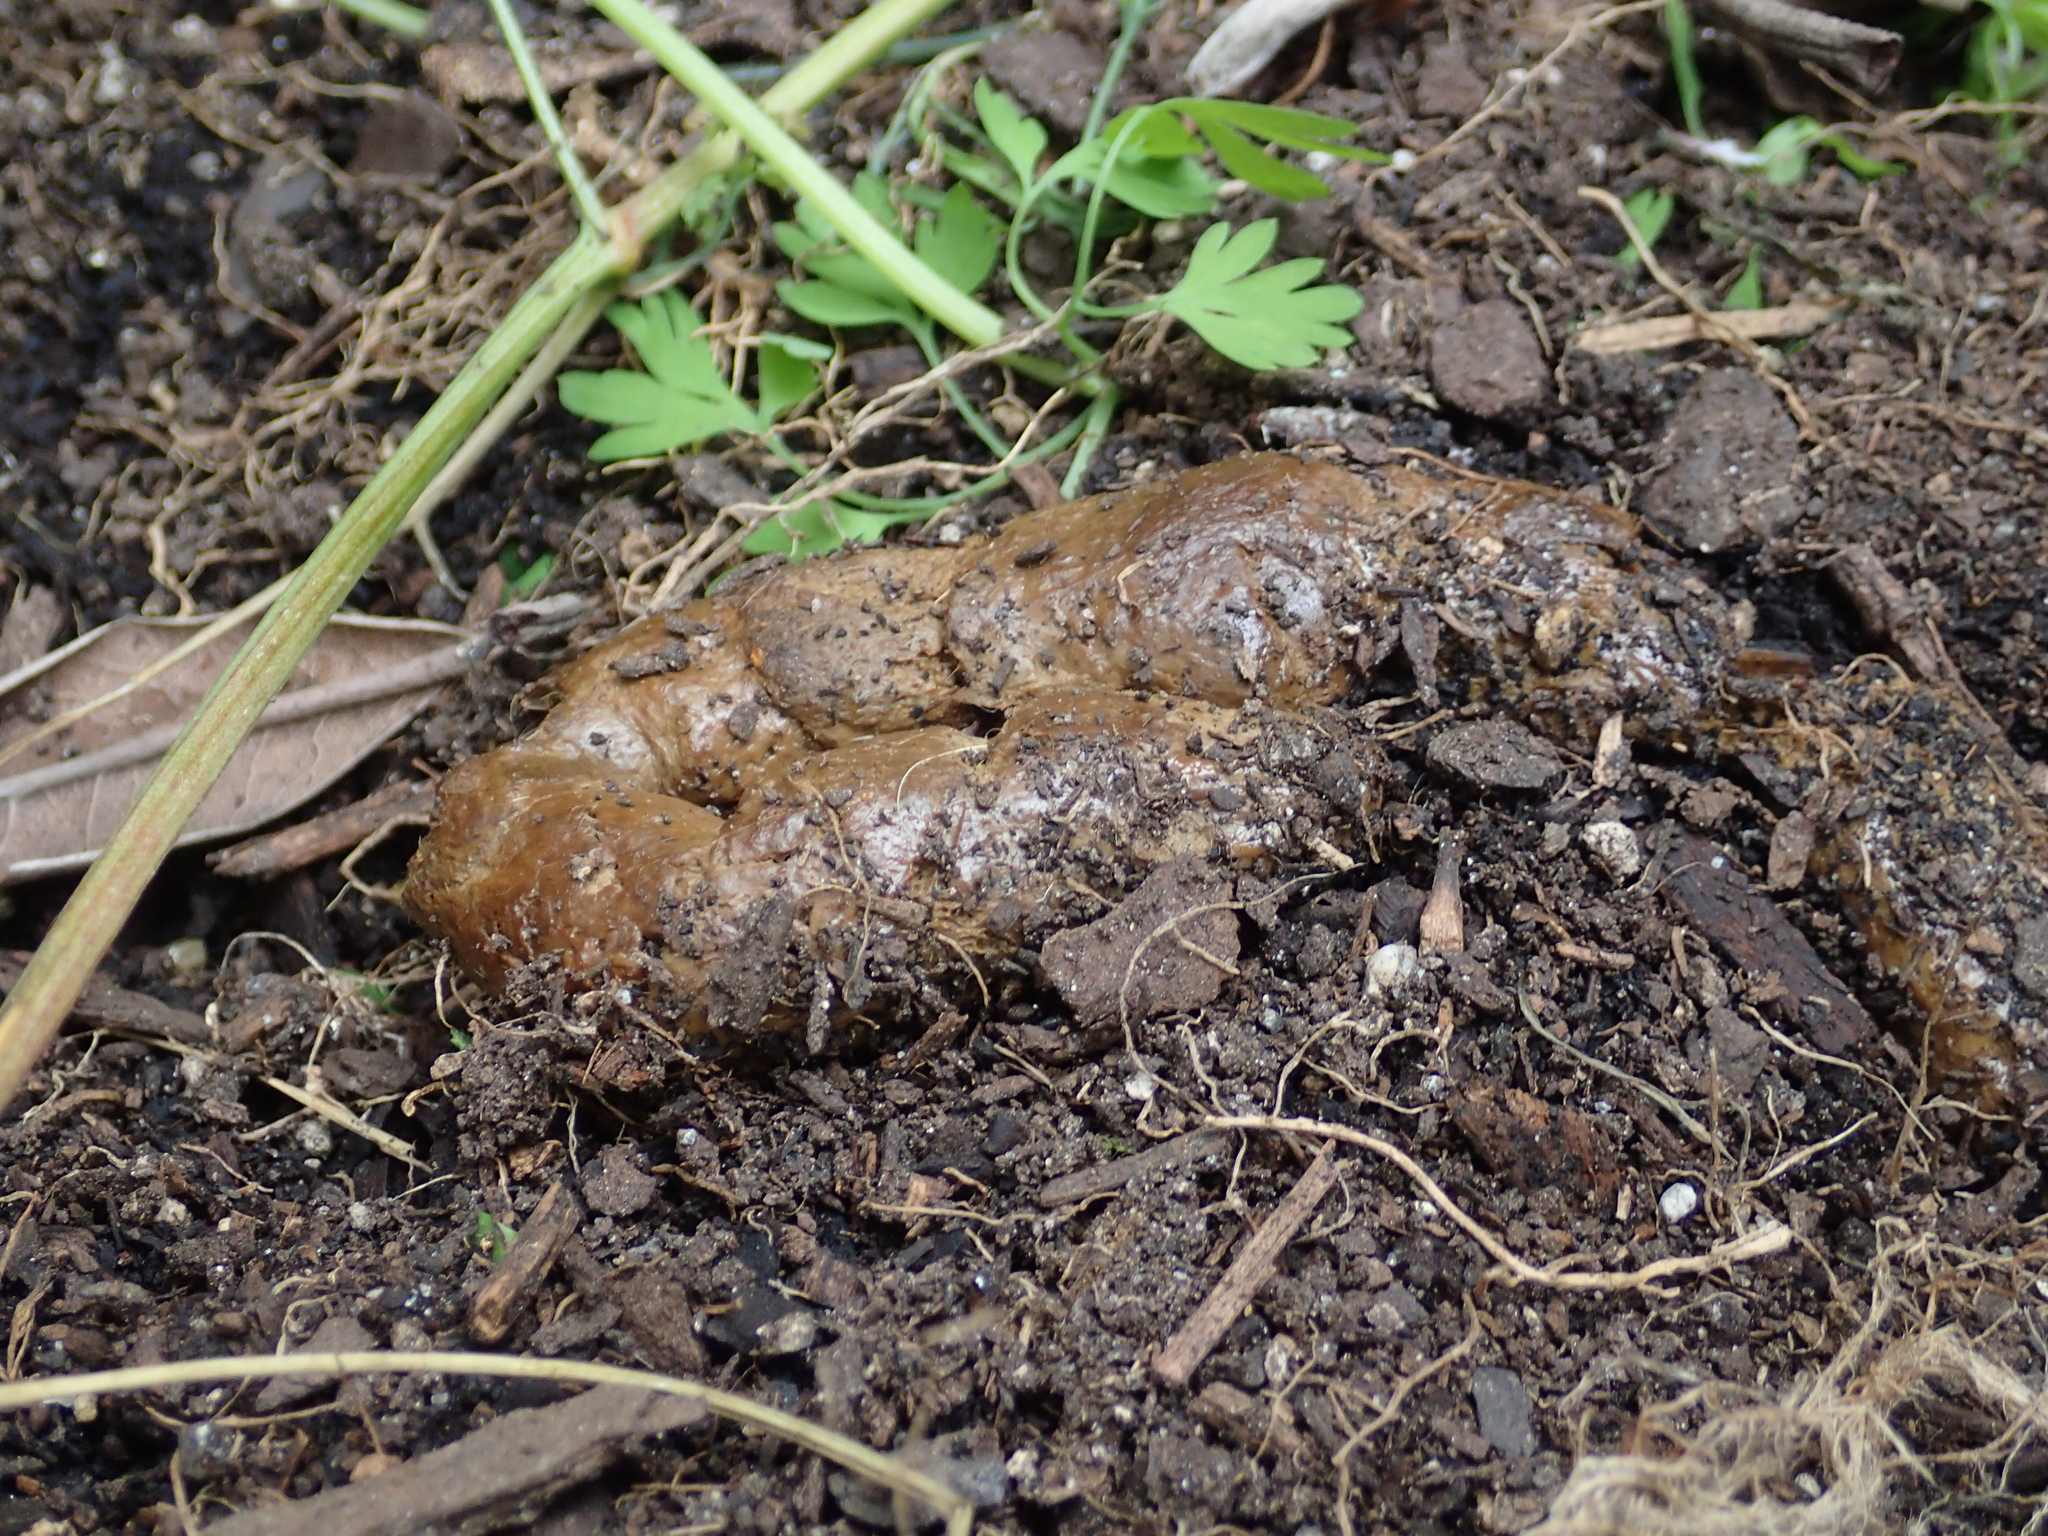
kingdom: Animalia
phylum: Chordata
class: Mammalia
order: Carnivora
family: Felidae
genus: Felis
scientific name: Felis catus
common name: Domestic cat
